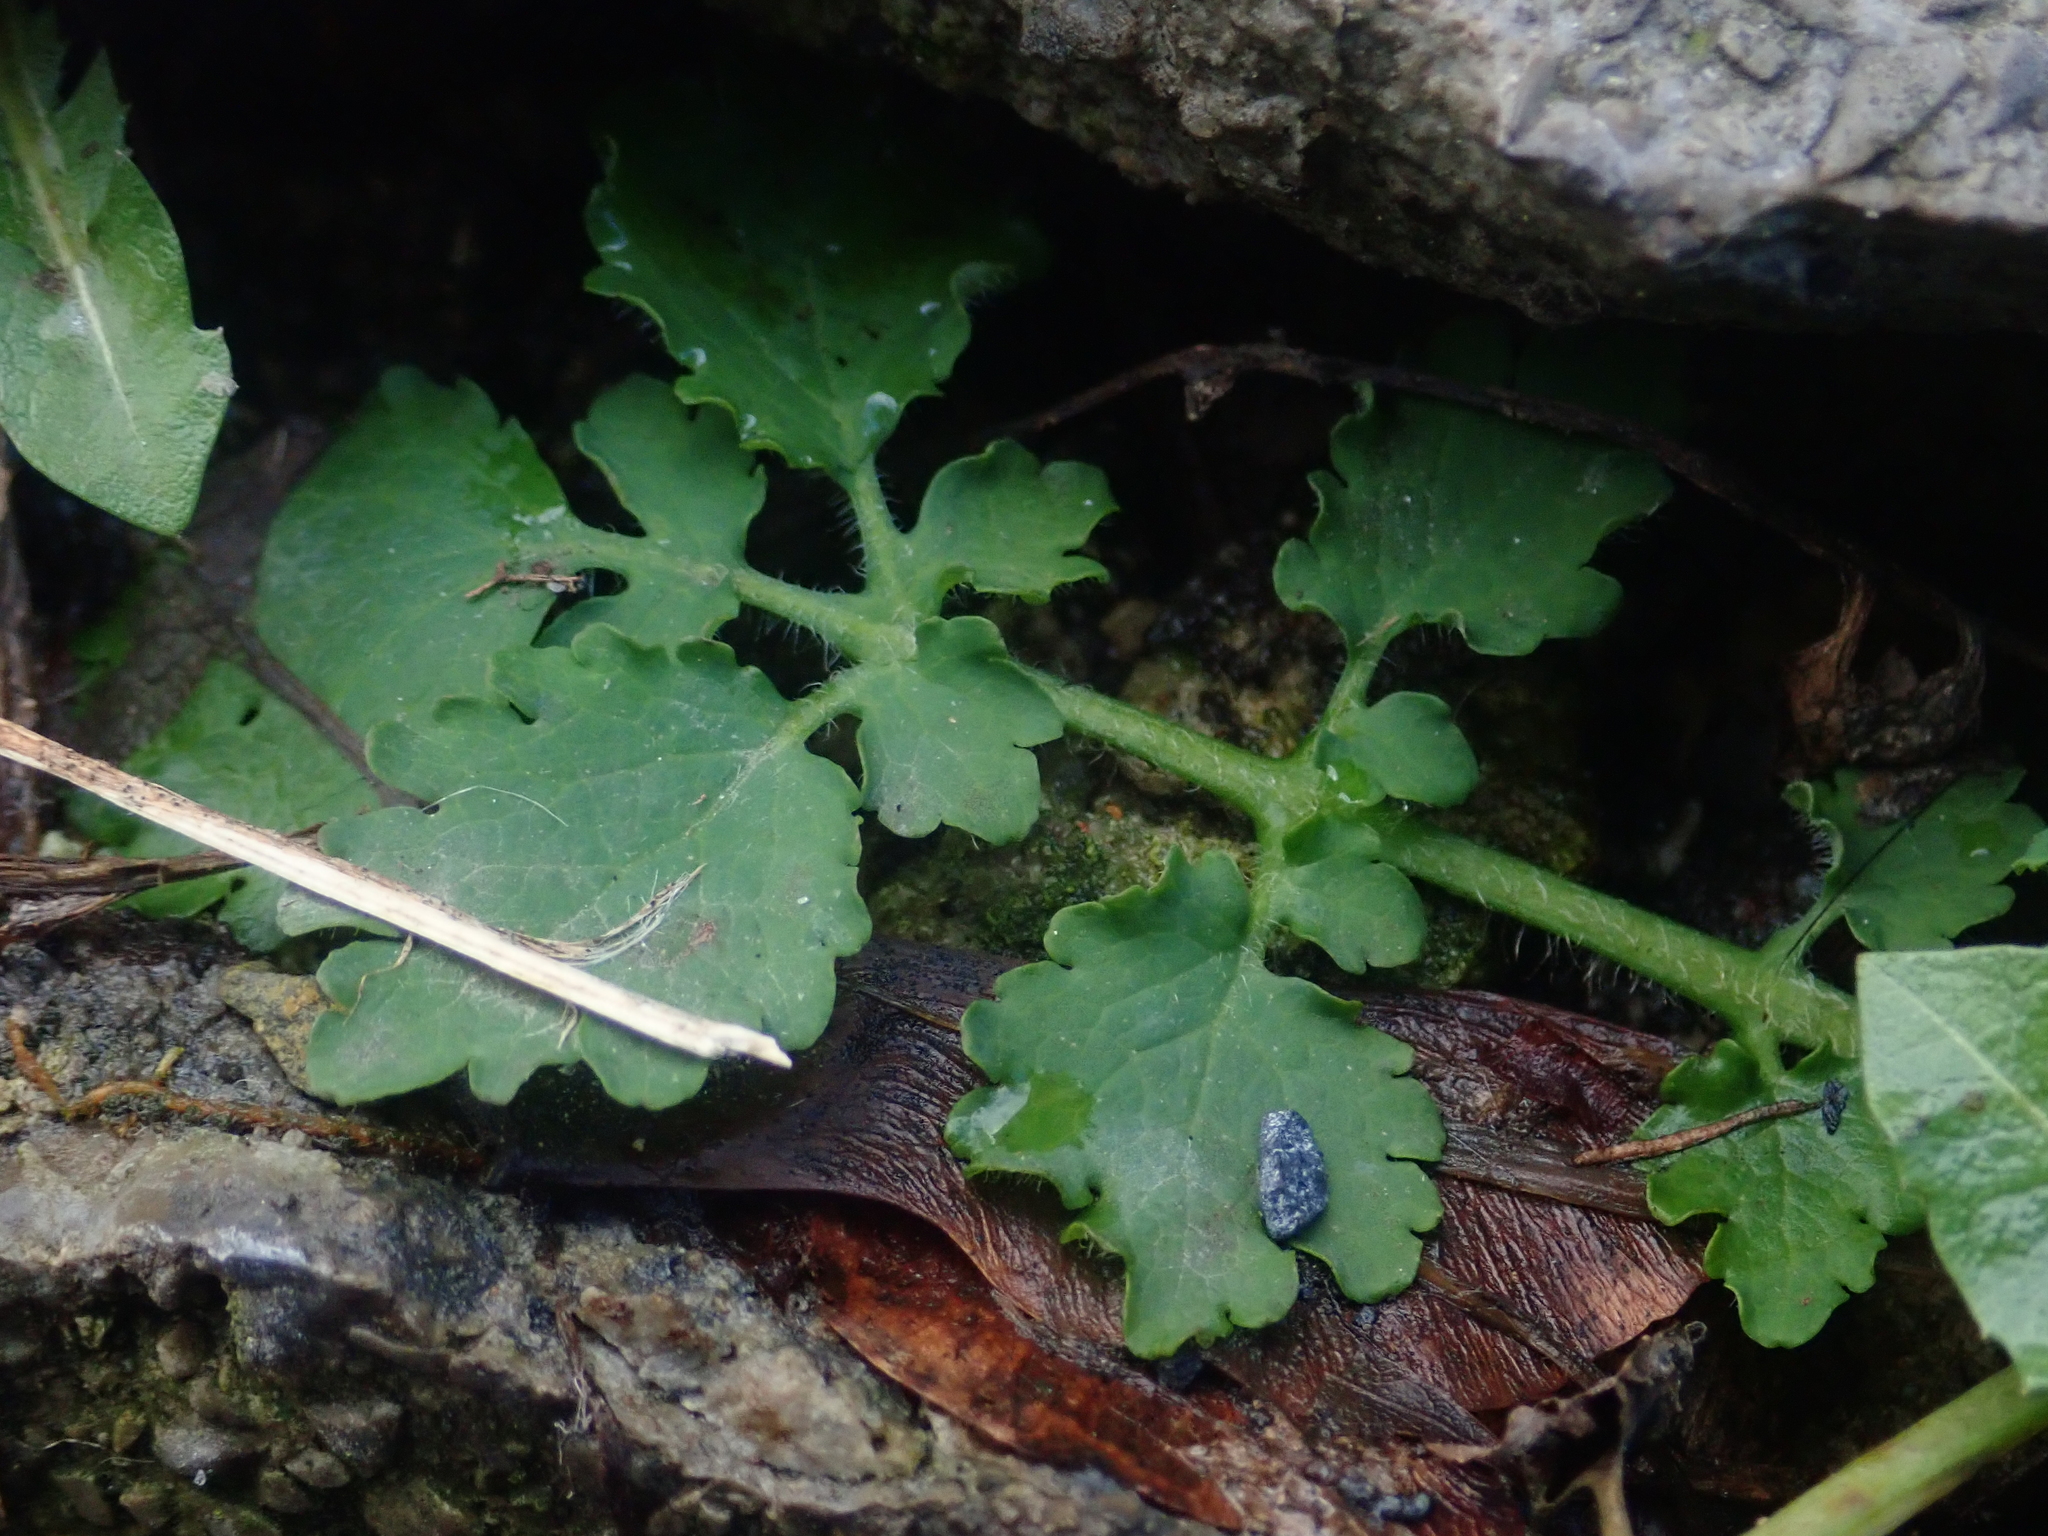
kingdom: Plantae
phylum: Tracheophyta
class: Magnoliopsida
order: Ranunculales
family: Papaveraceae
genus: Chelidonium
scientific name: Chelidonium majus
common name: Greater celandine
